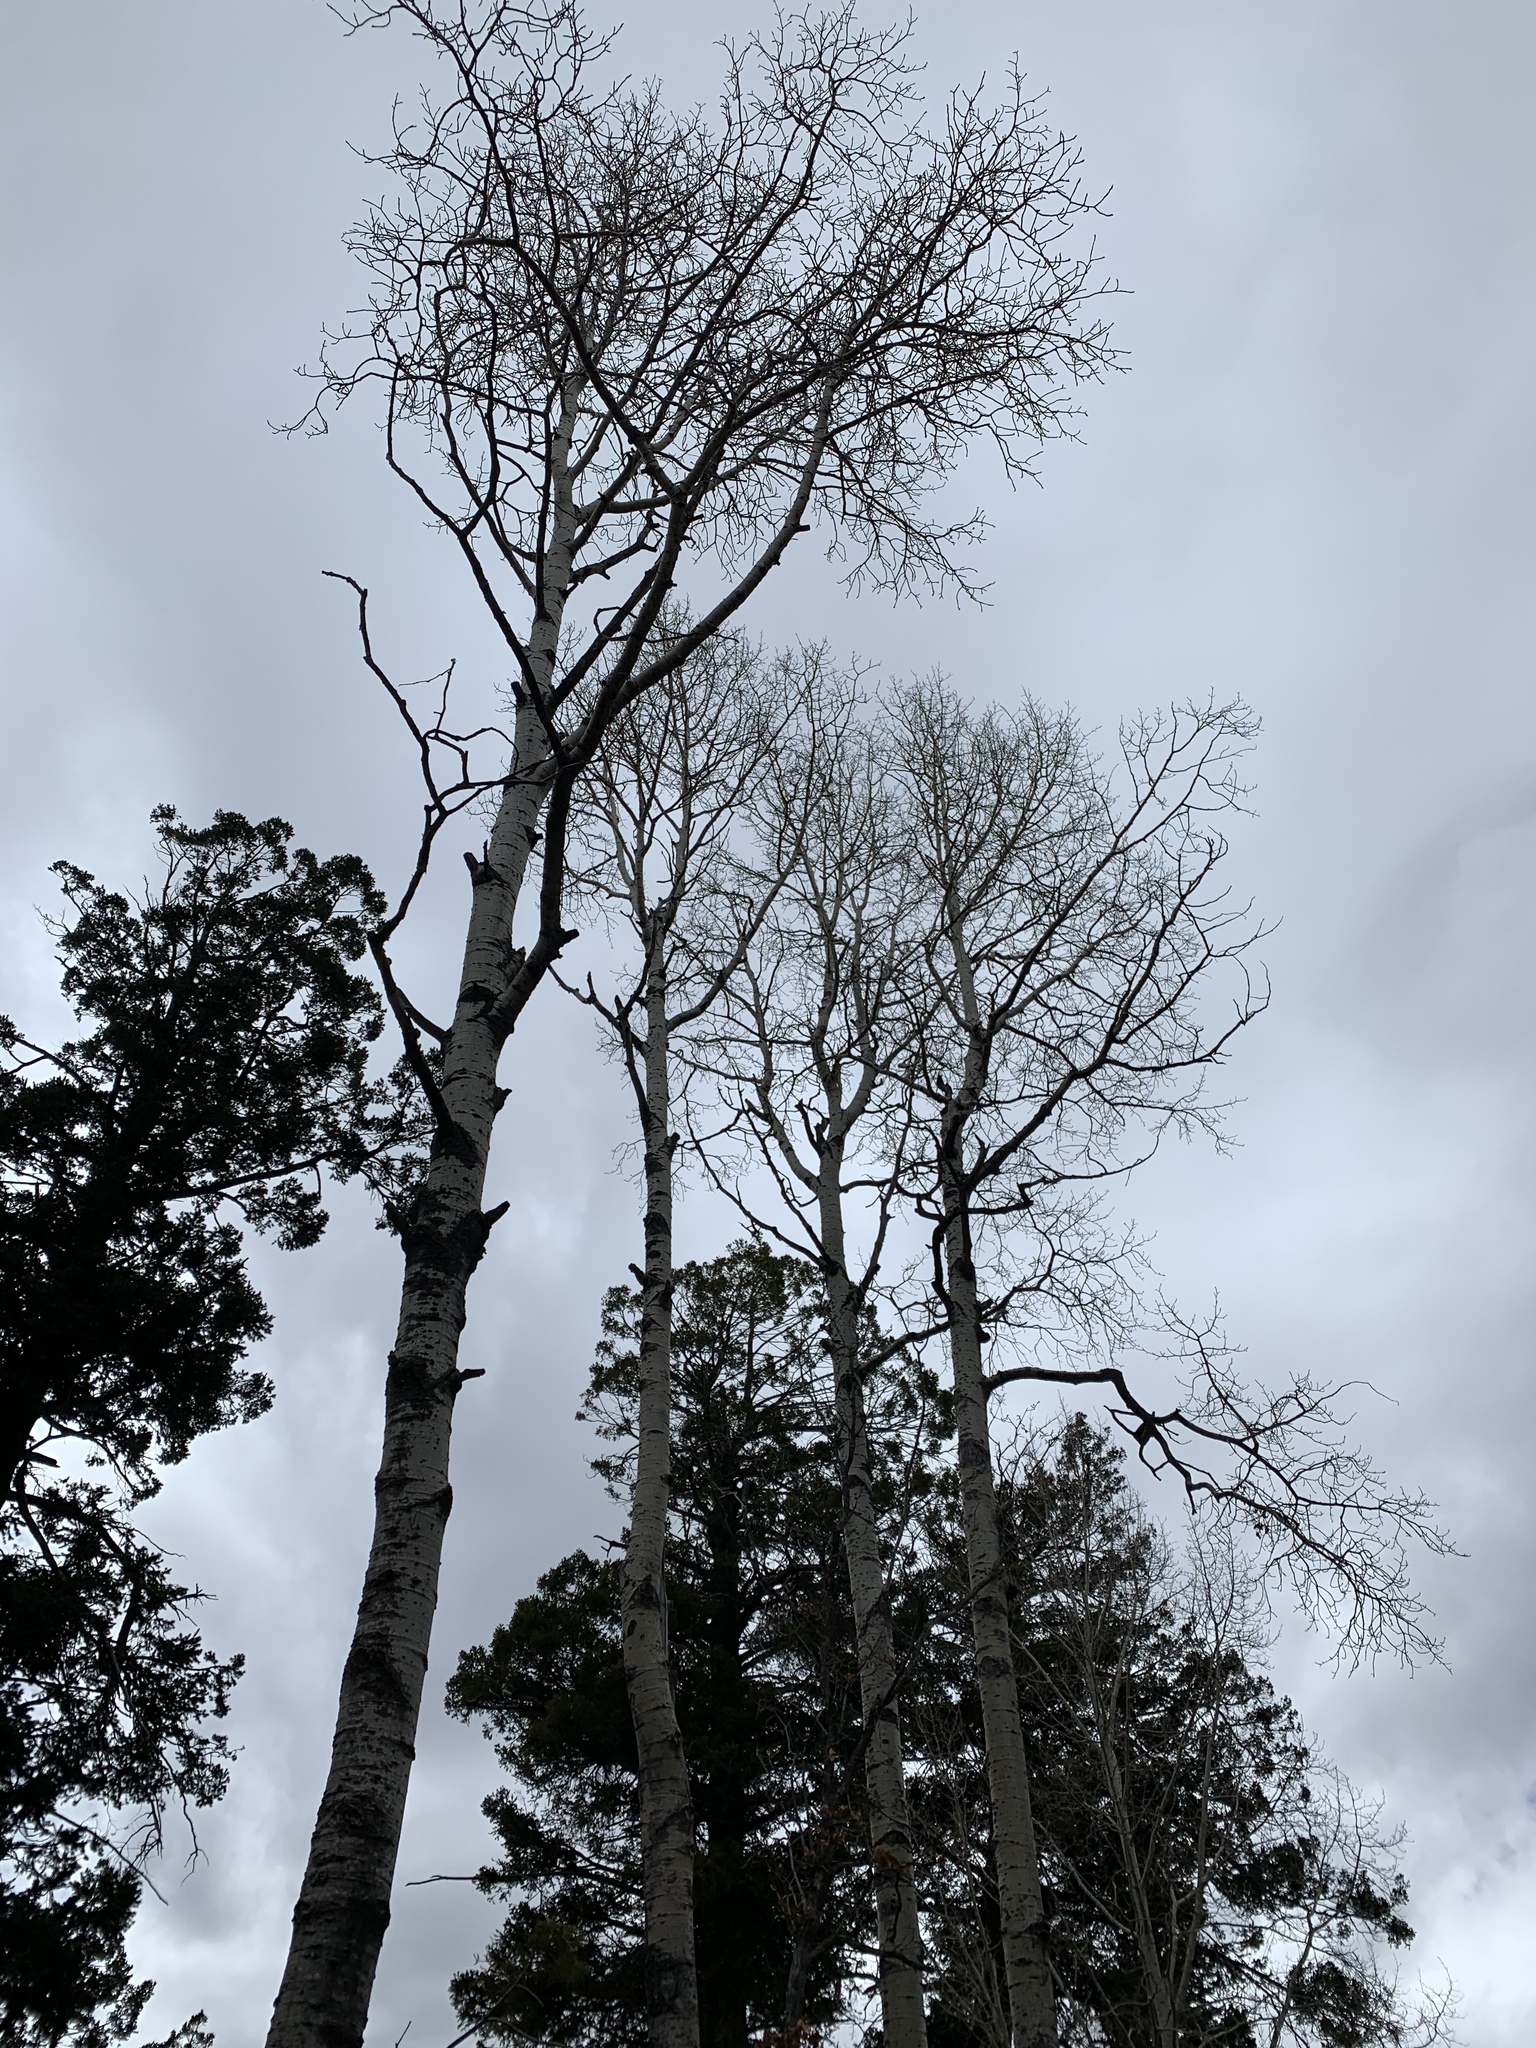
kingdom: Plantae
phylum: Tracheophyta
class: Magnoliopsida
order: Malpighiales
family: Salicaceae
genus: Populus
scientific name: Populus tremuloides
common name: Quaking aspen
